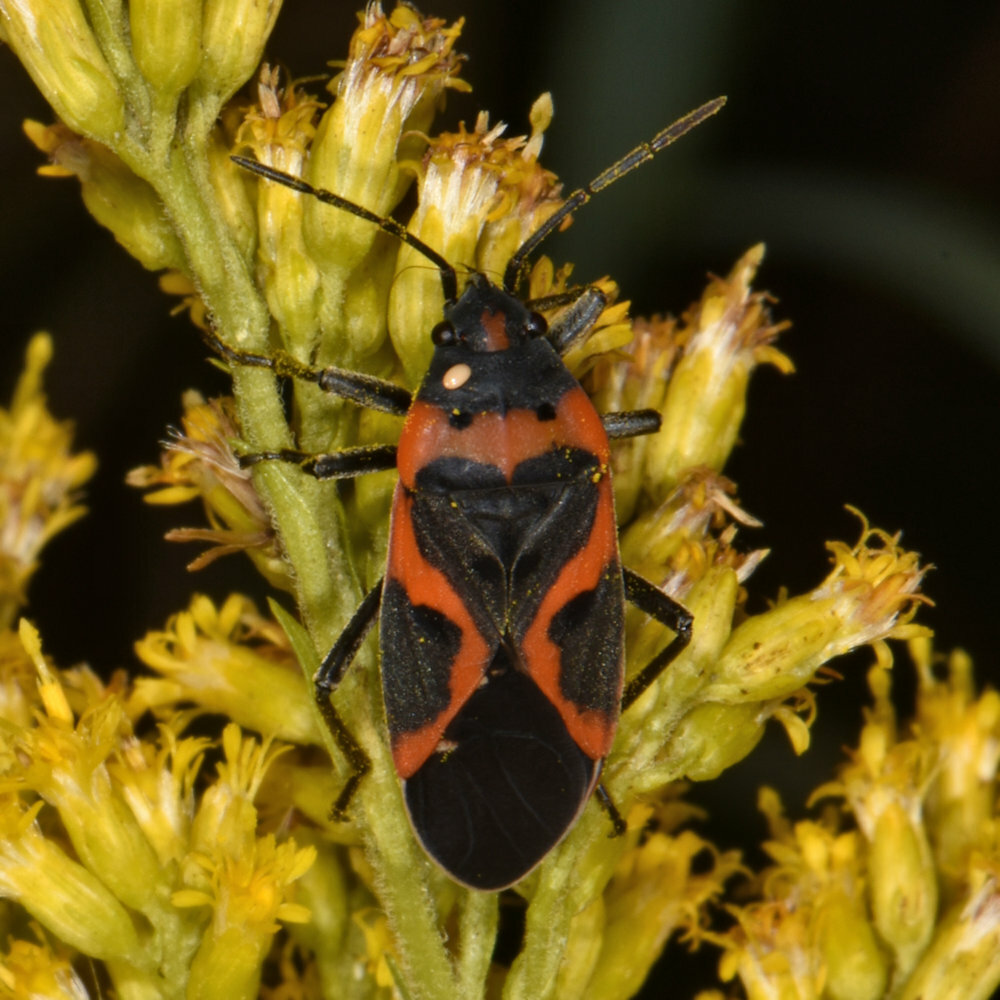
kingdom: Animalia
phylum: Arthropoda
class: Insecta
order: Hemiptera
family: Lygaeidae
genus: Lygaeus
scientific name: Lygaeus kalmii
